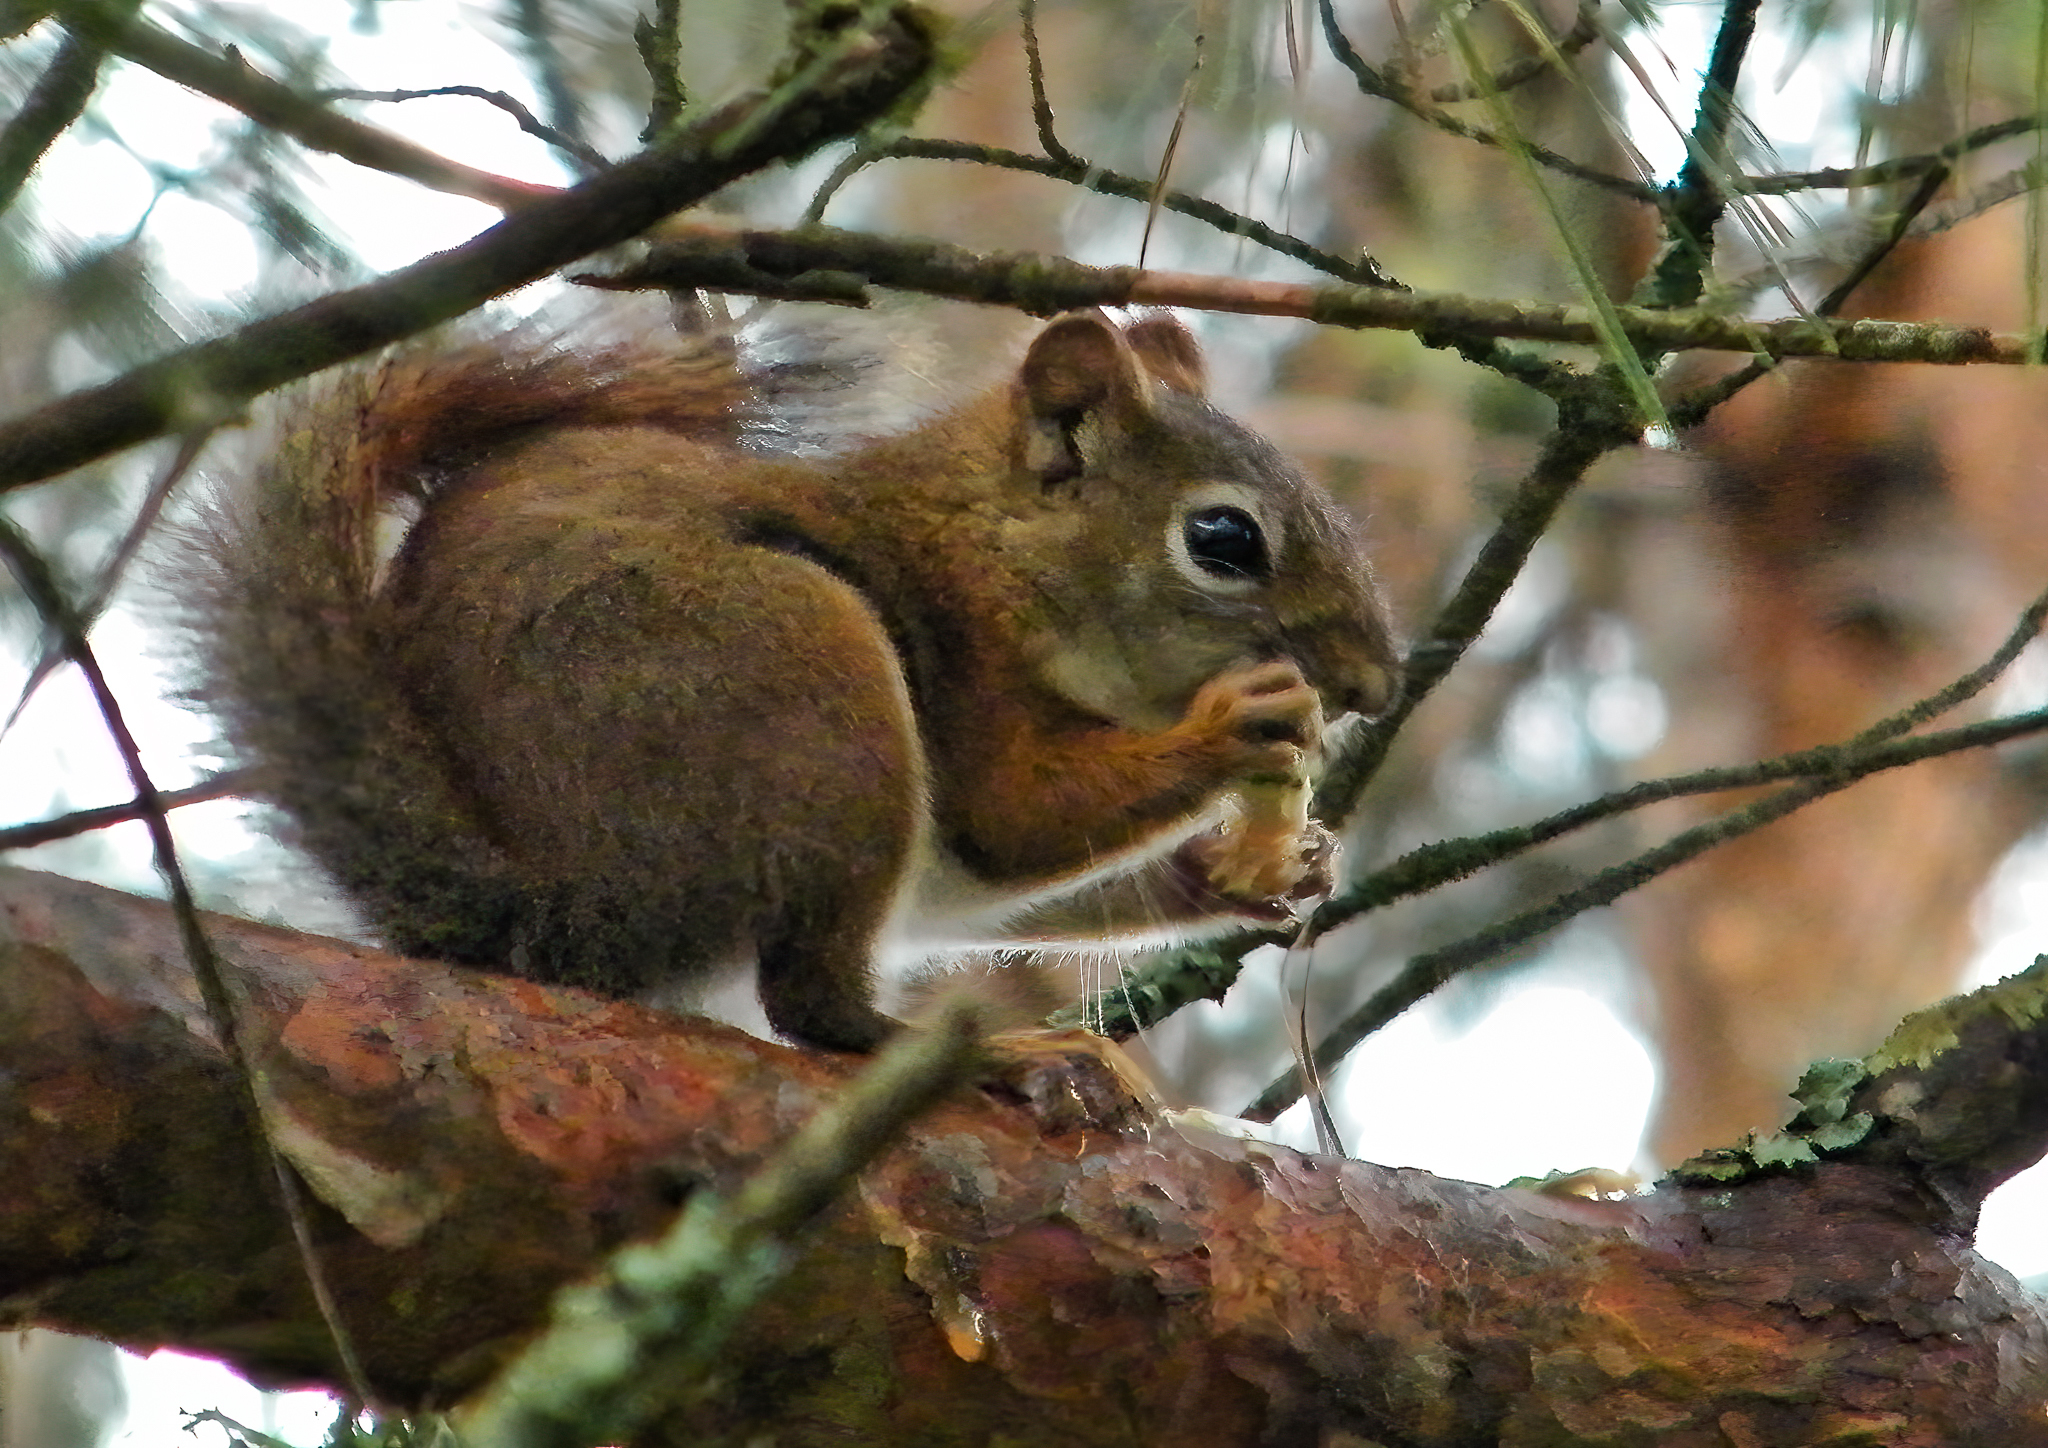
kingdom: Animalia
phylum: Chordata
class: Mammalia
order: Rodentia
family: Sciuridae
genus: Tamiasciurus
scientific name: Tamiasciurus hudsonicus
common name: Red squirrel
